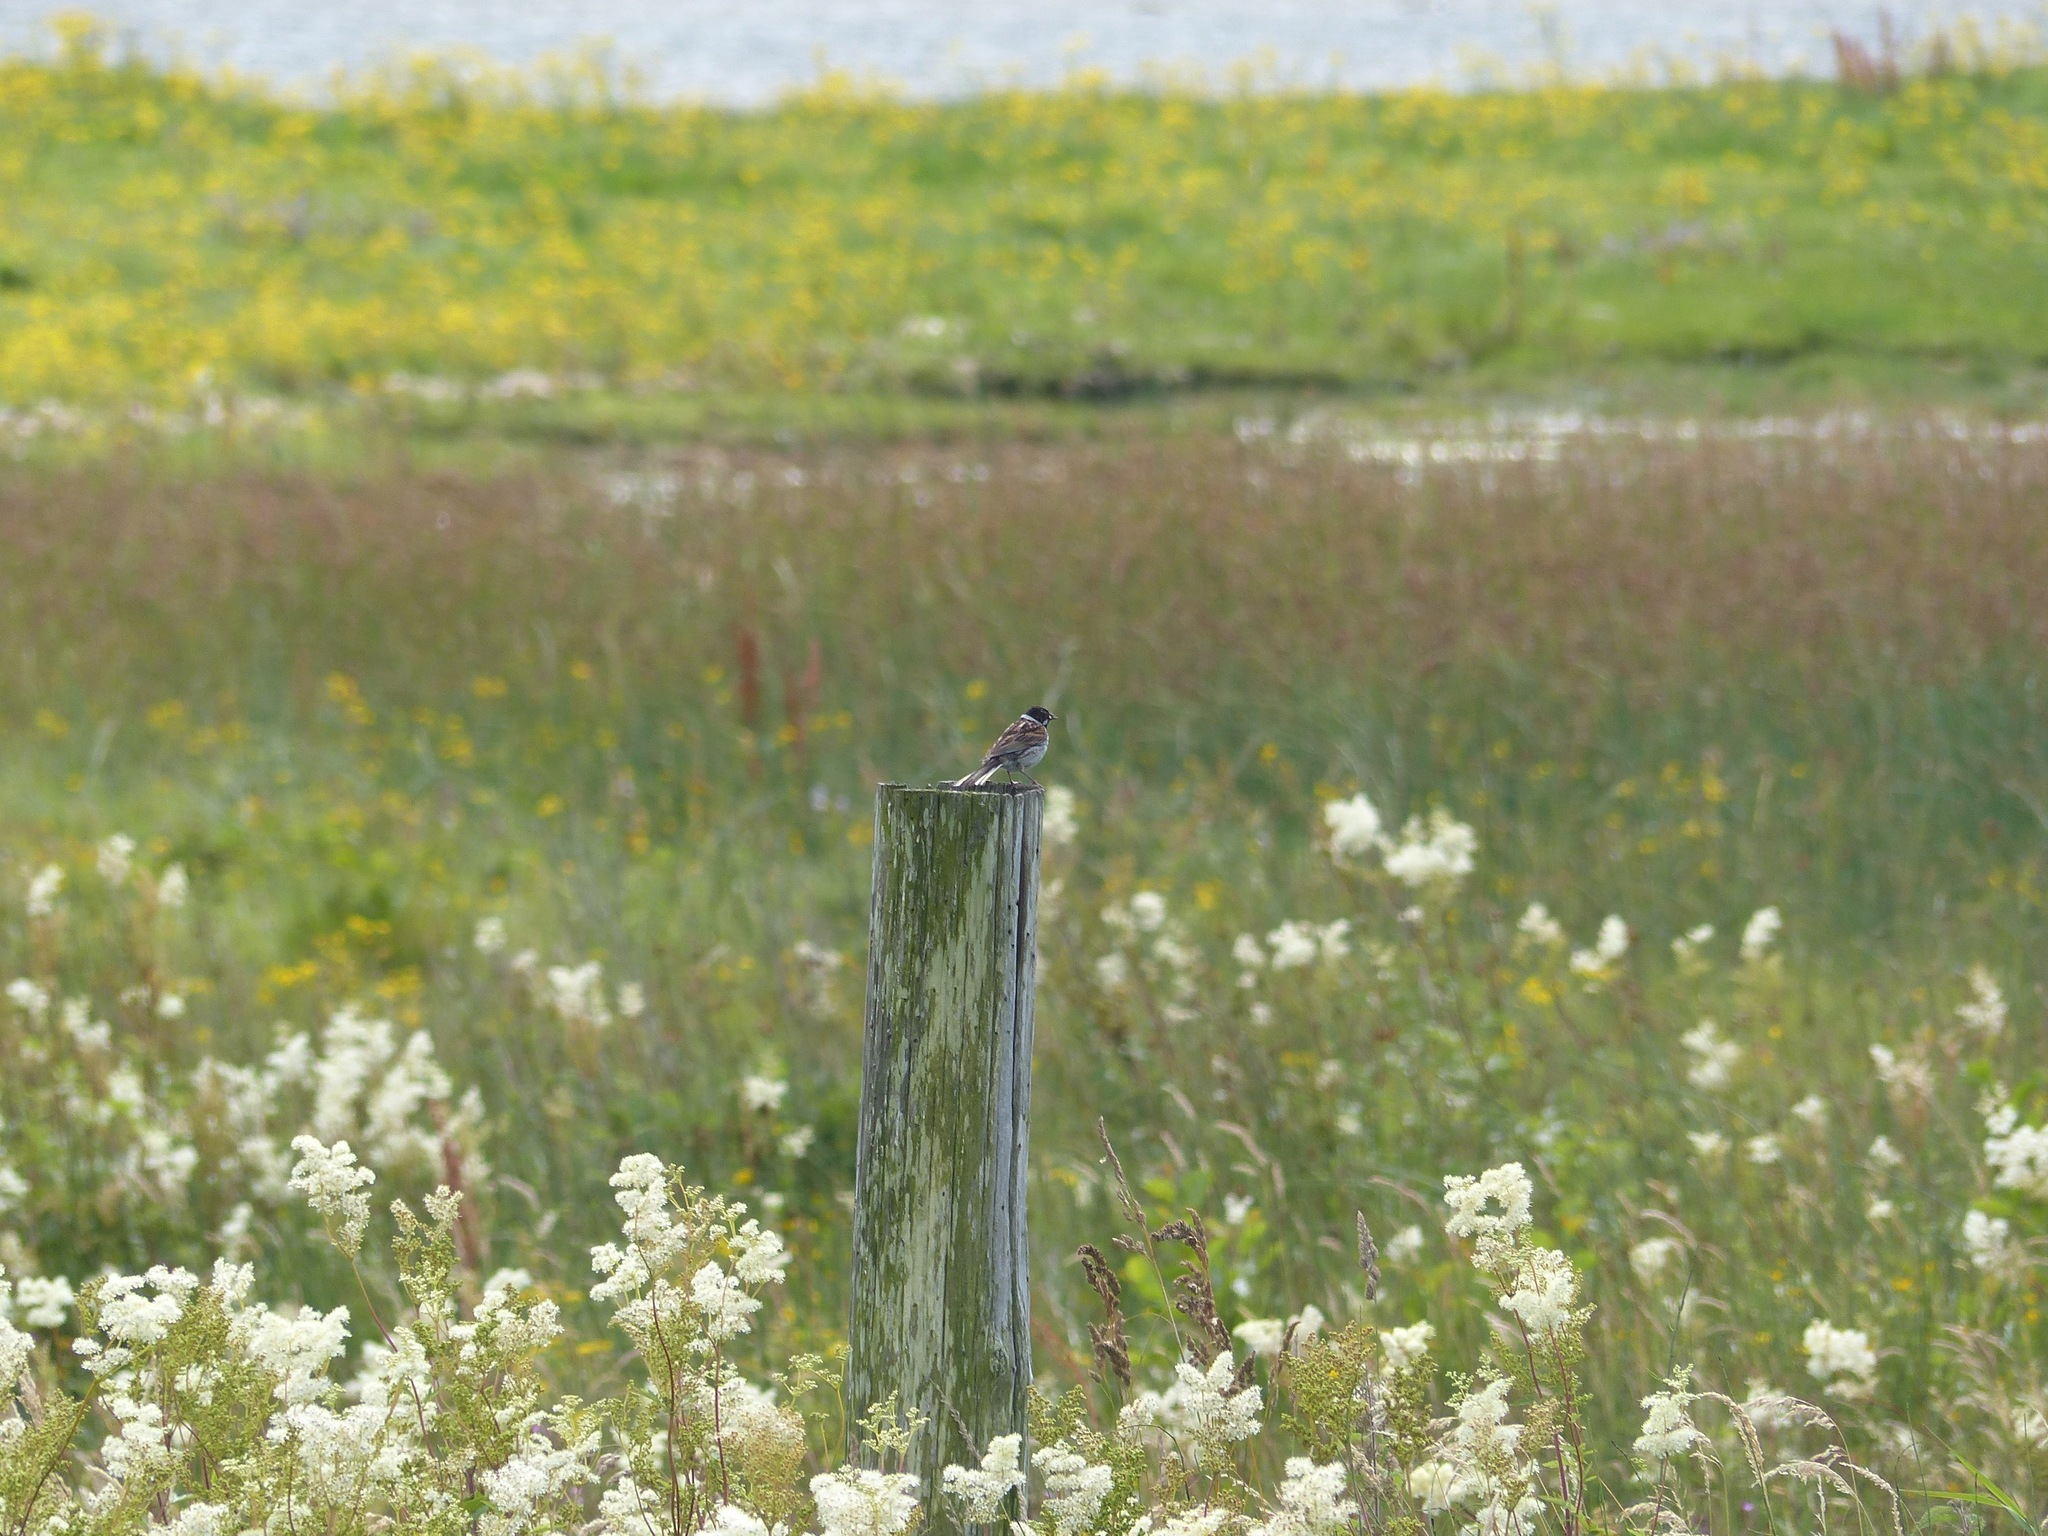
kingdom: Animalia
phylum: Chordata
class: Aves
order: Passeriformes
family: Emberizidae
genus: Emberiza
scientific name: Emberiza schoeniclus
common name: Reed bunting
